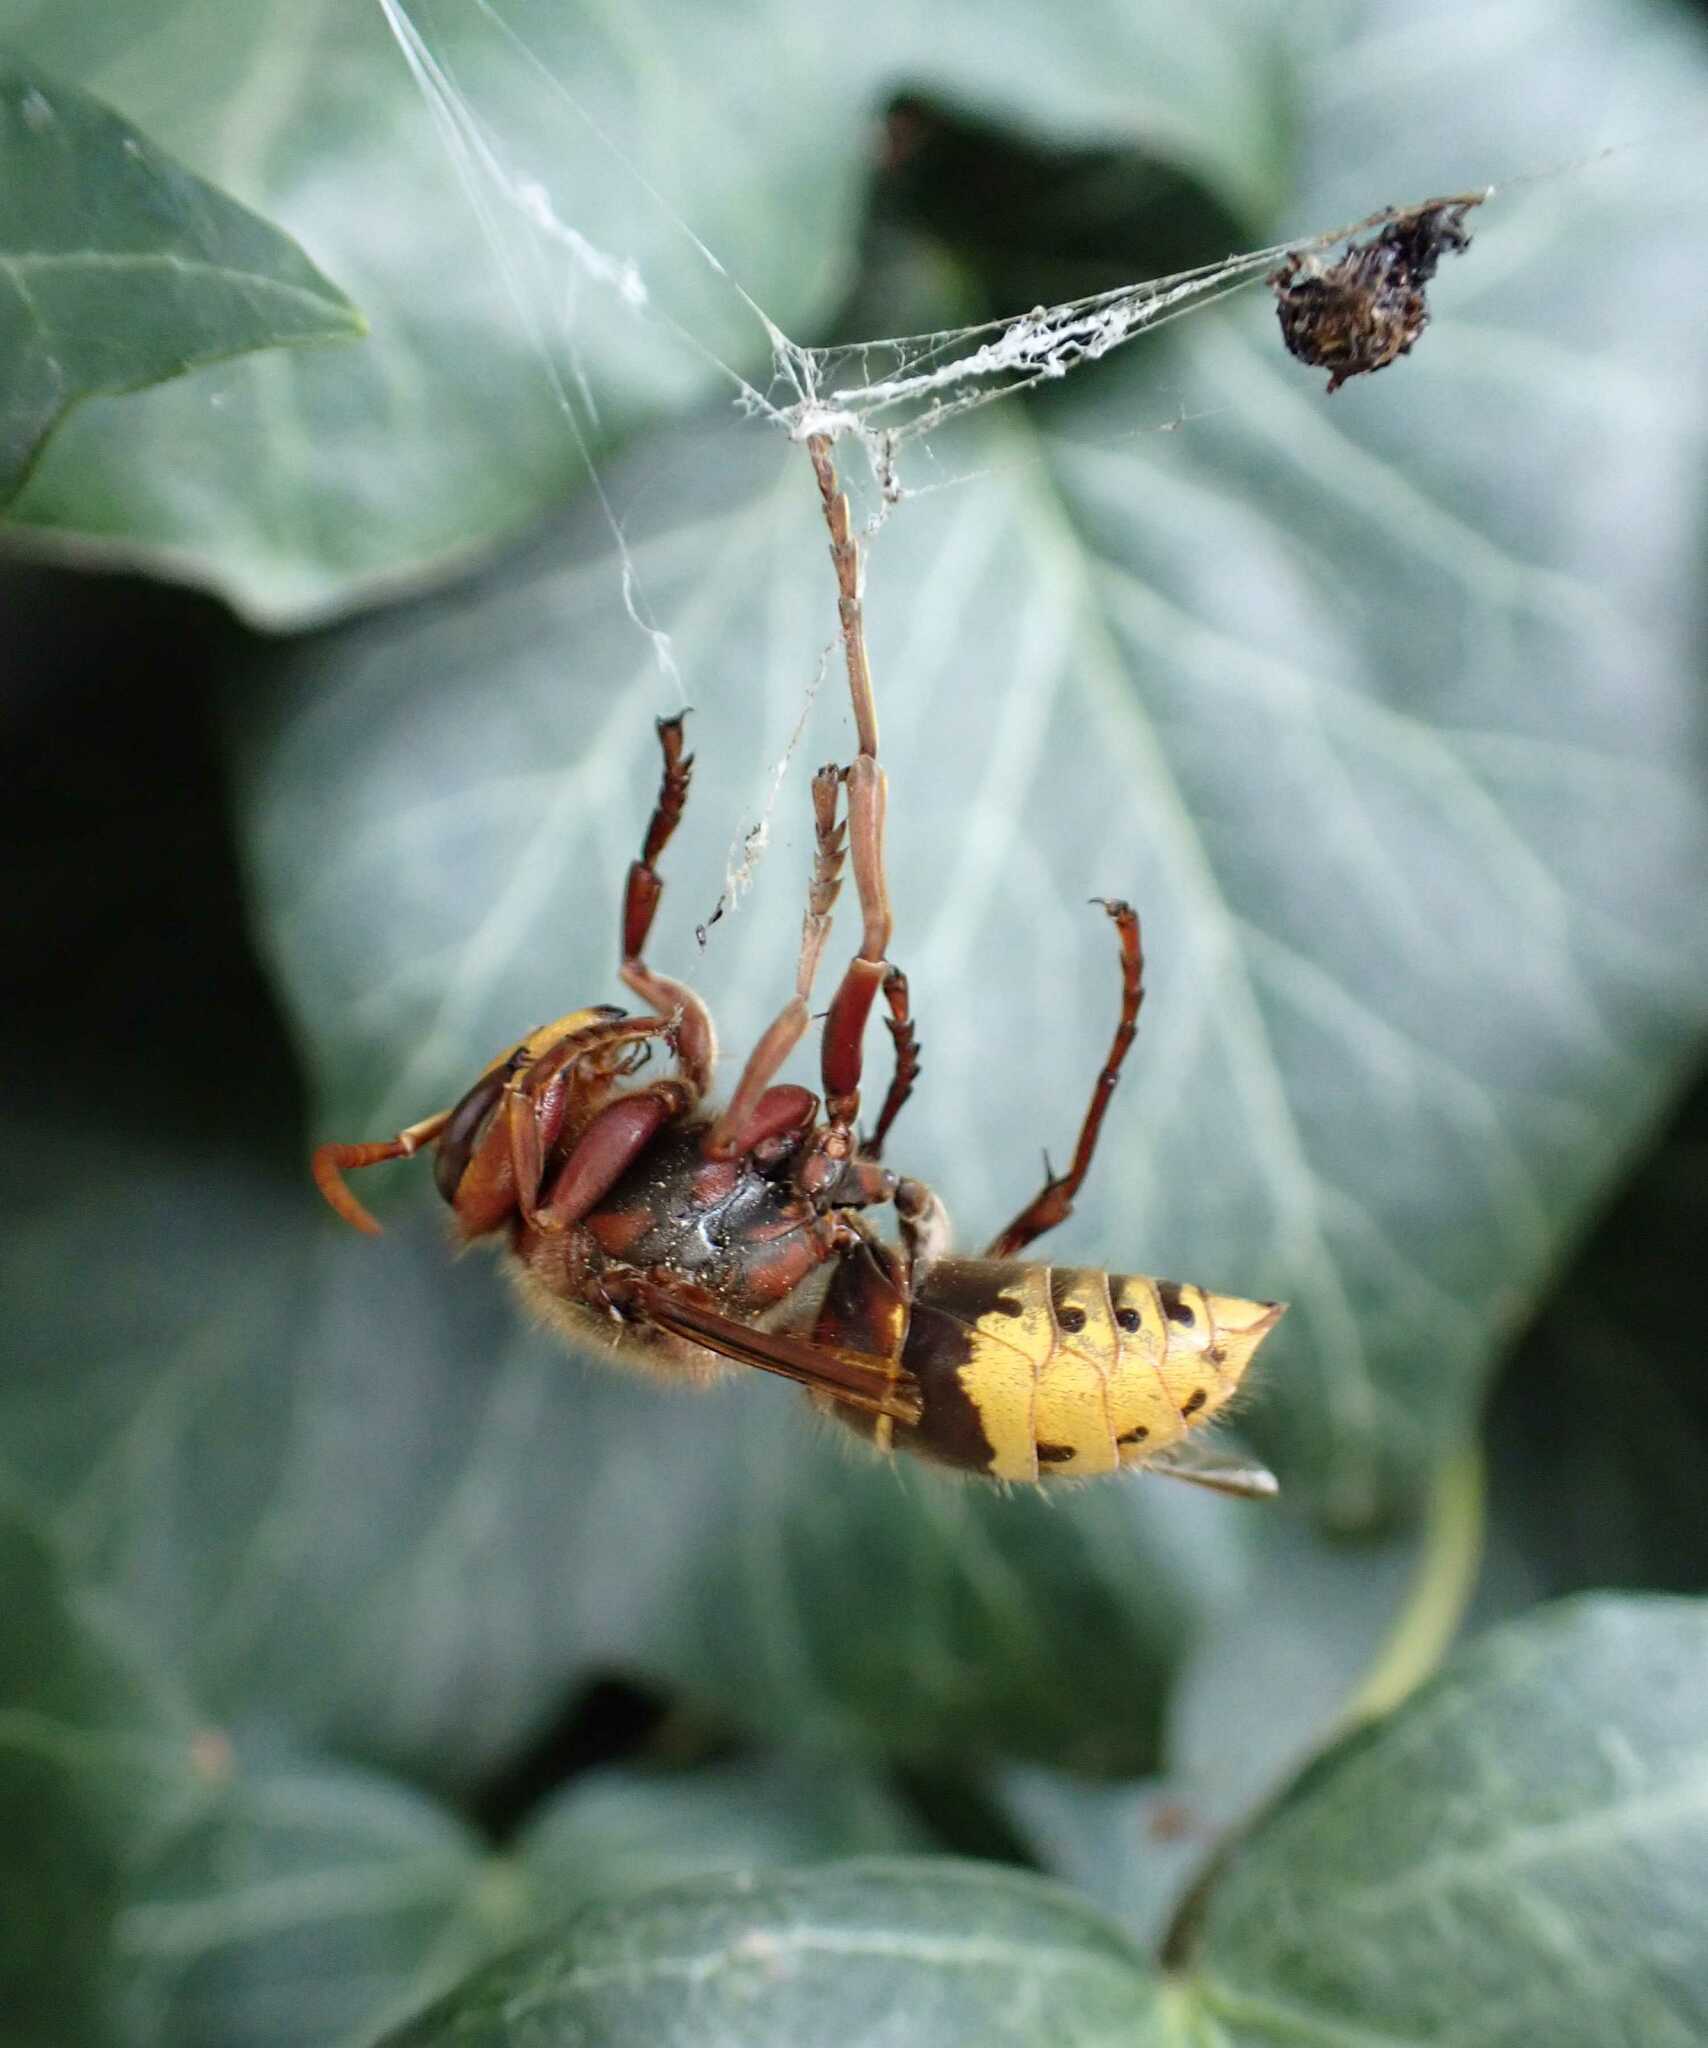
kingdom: Animalia
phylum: Arthropoda
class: Insecta
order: Hymenoptera
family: Vespidae
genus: Vespa
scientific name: Vespa crabro
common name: Hornet
